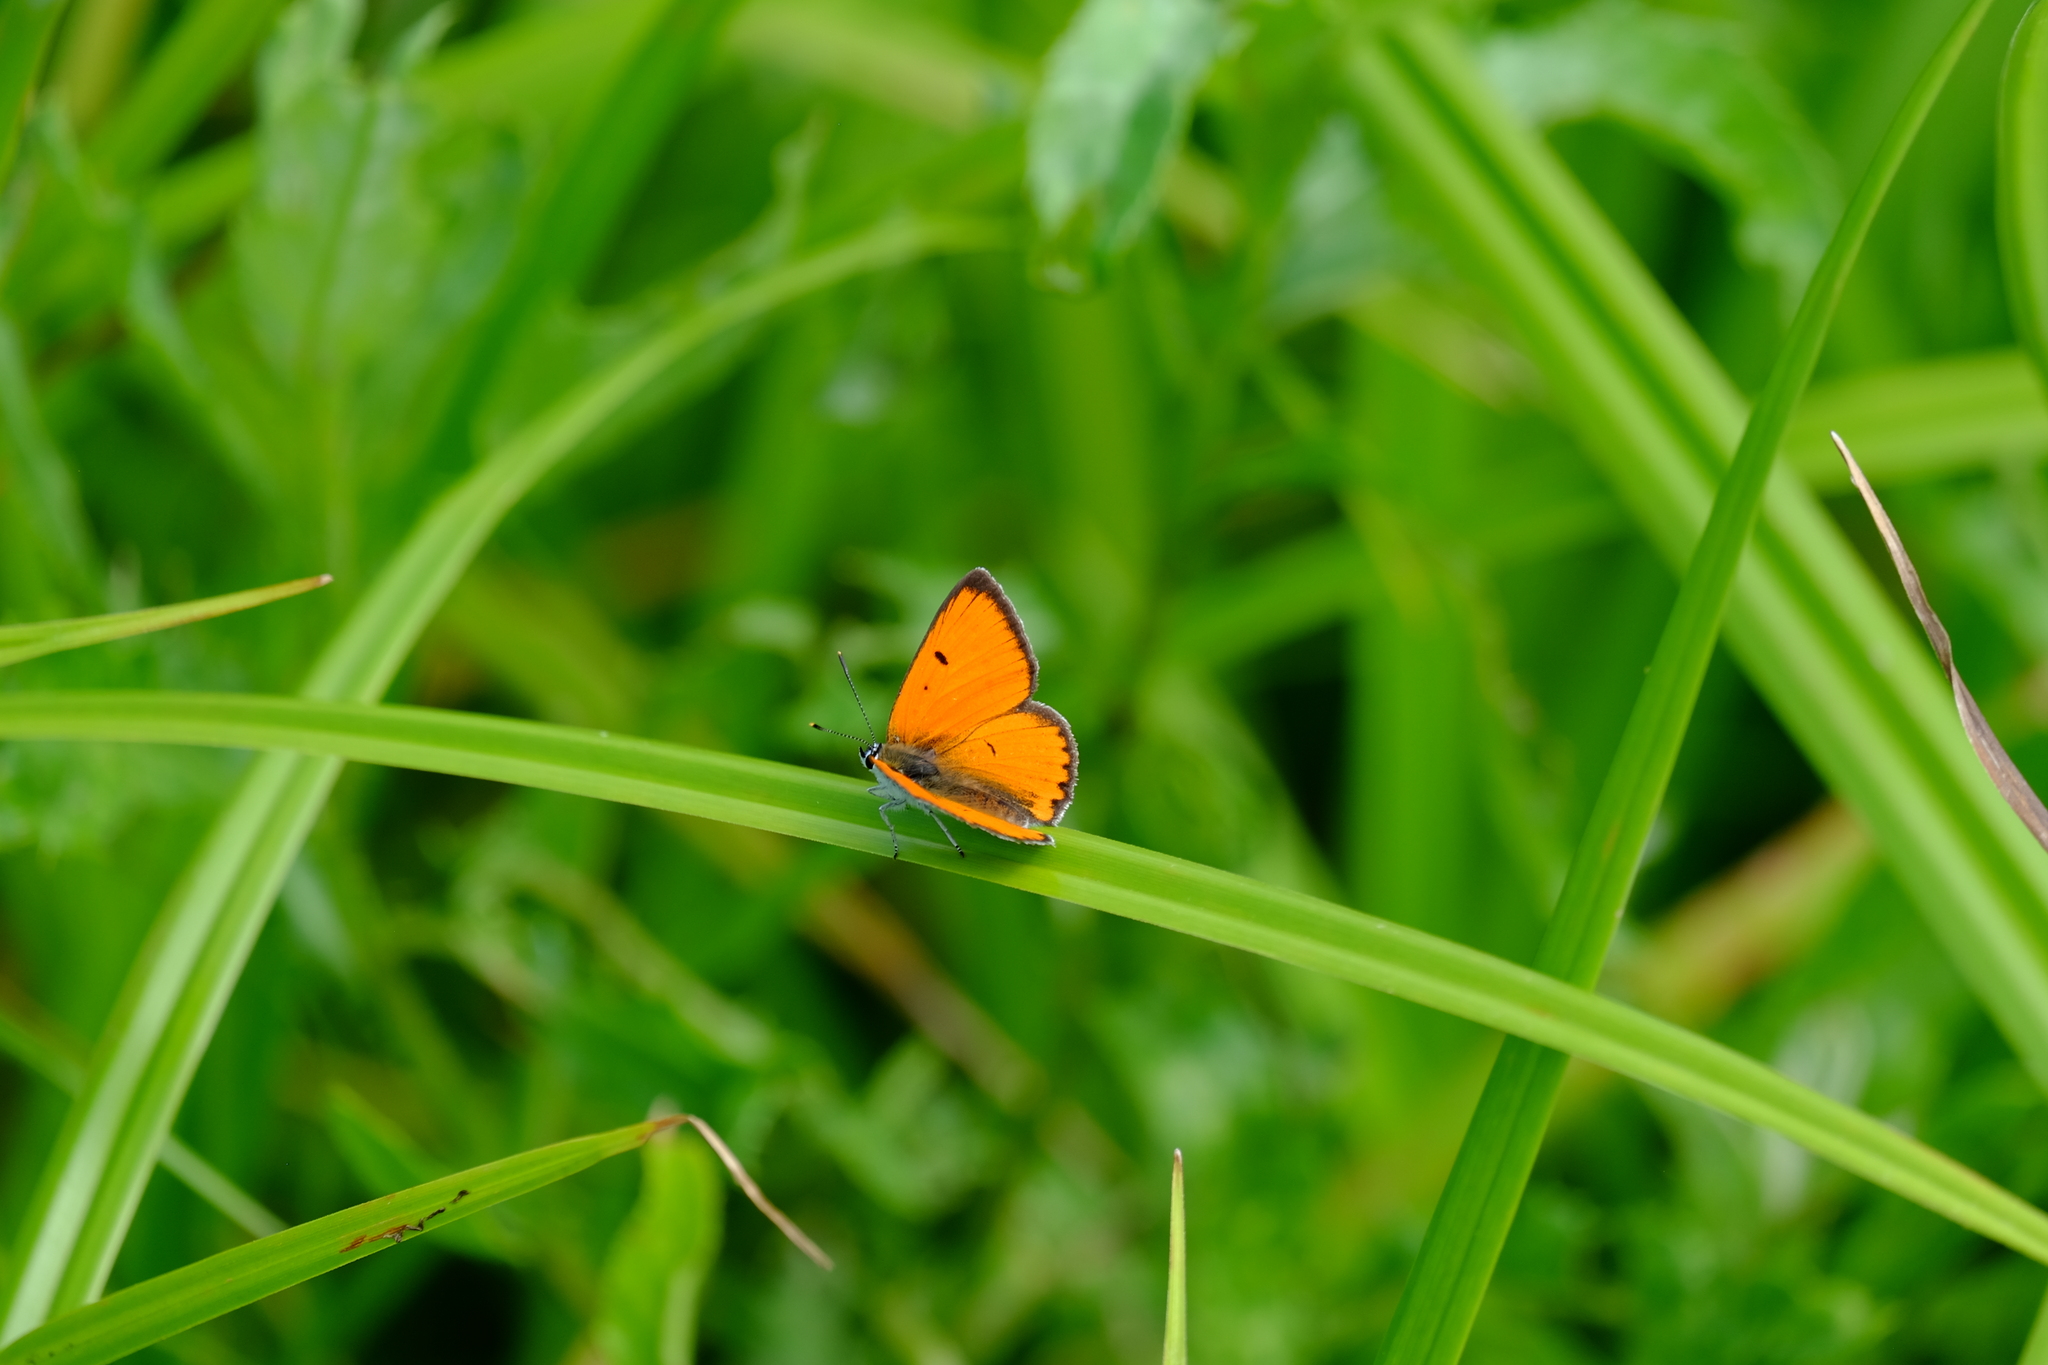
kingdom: Animalia
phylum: Arthropoda
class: Insecta
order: Lepidoptera
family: Lycaenidae
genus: Lycaena
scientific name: Lycaena dispar
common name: Large copper
